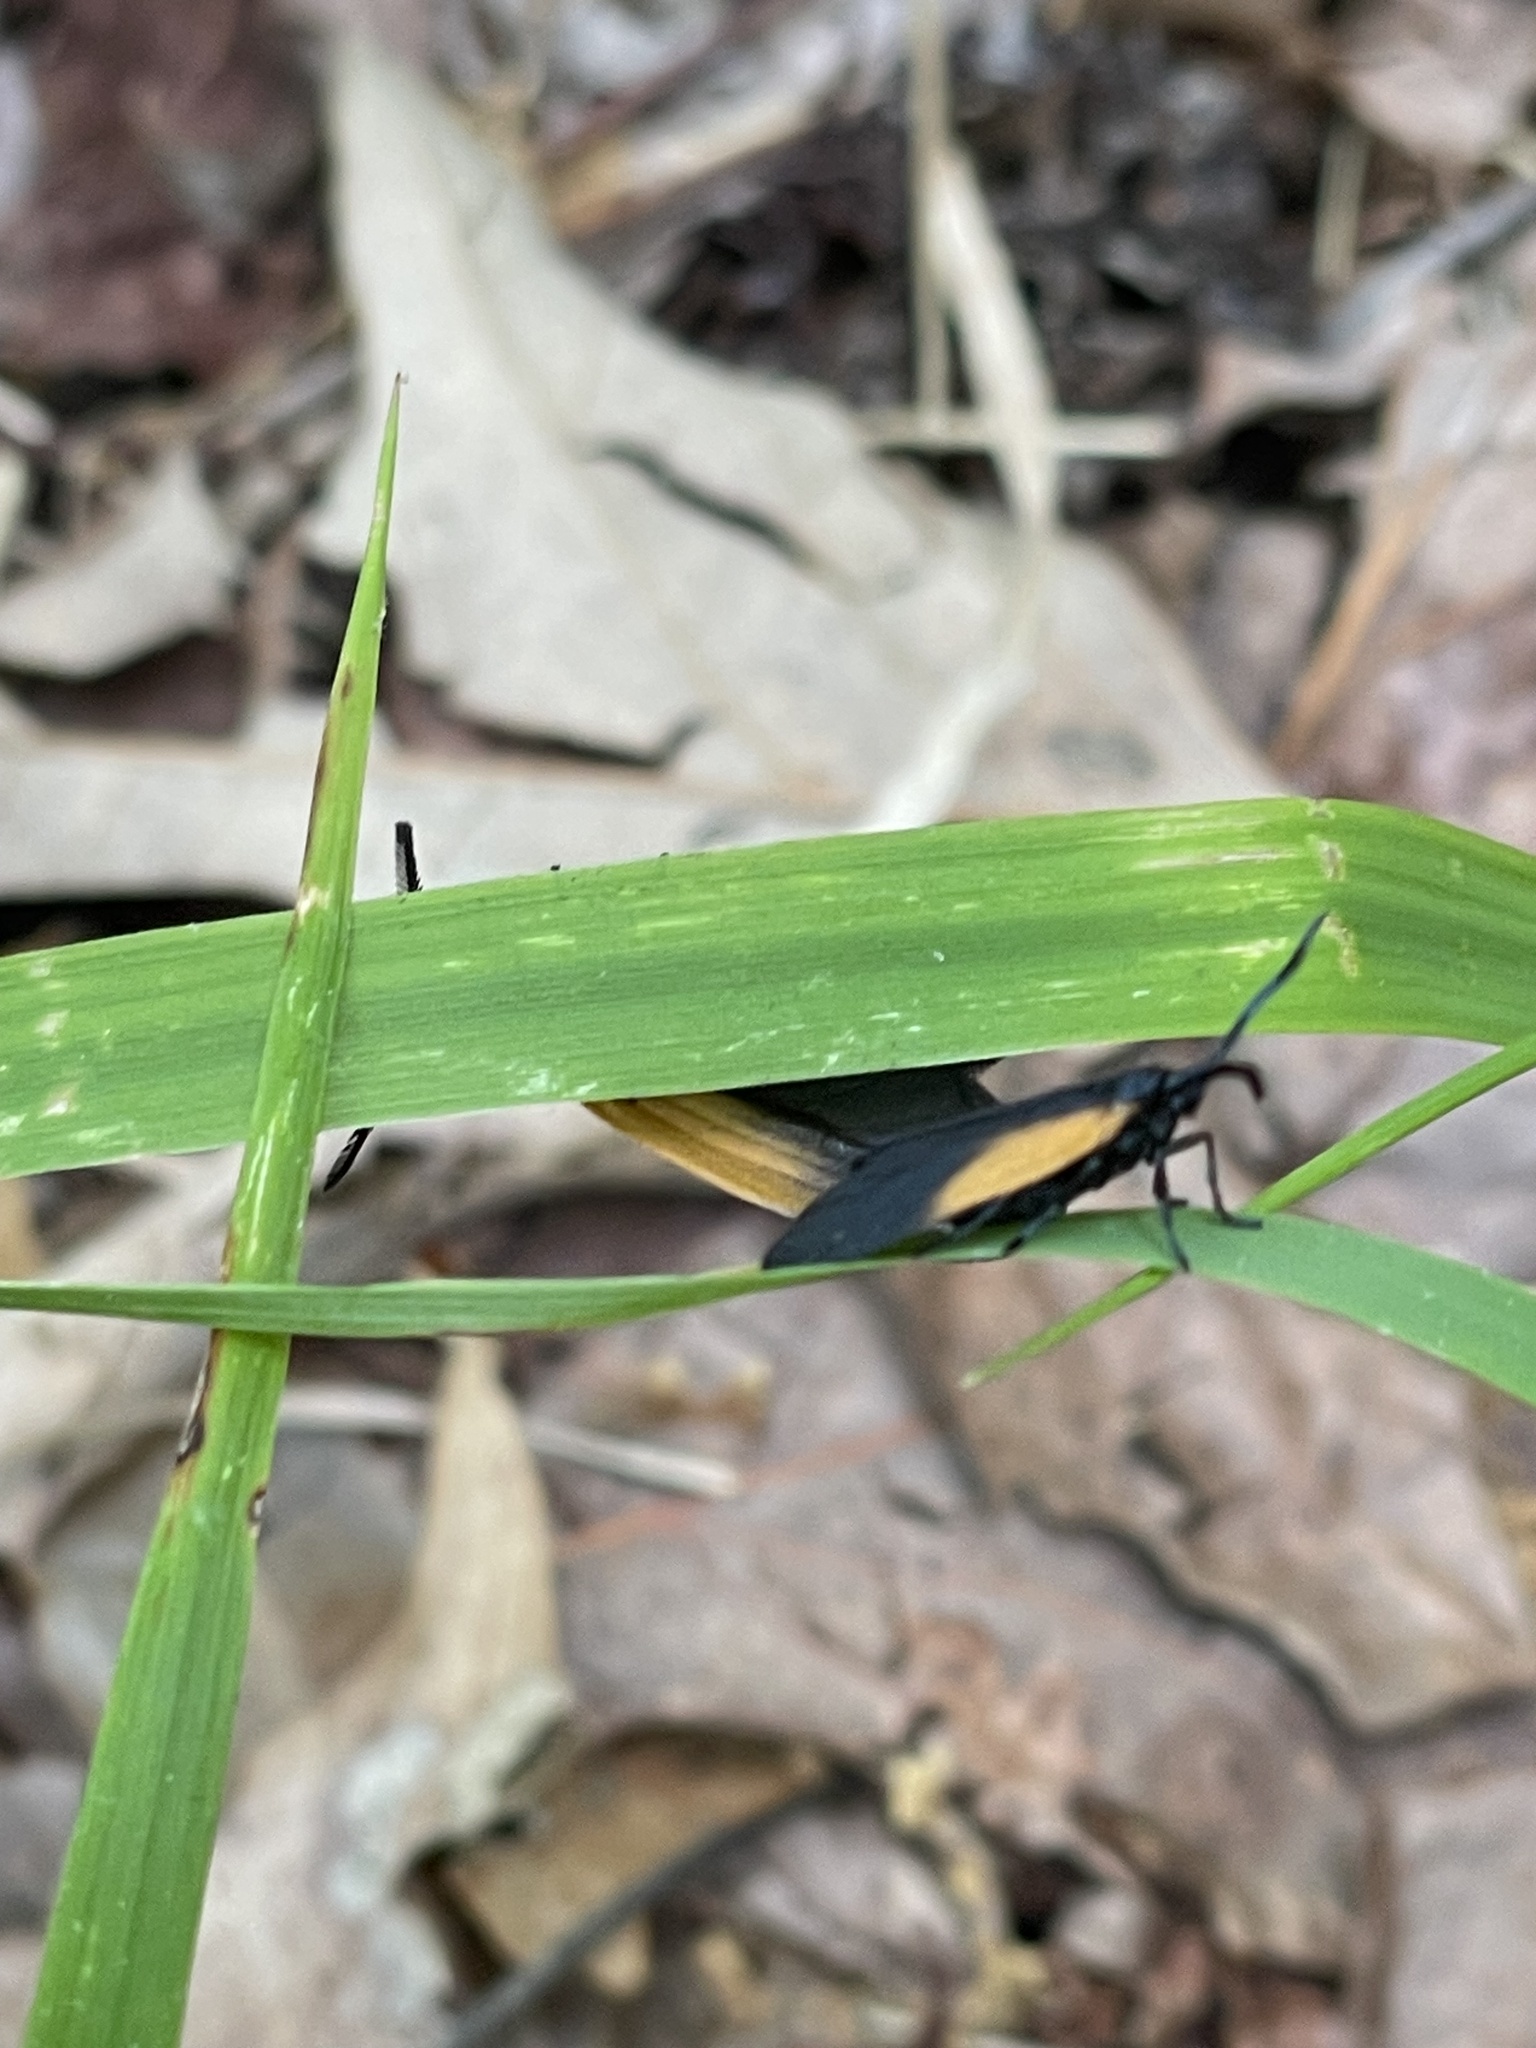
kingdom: Animalia
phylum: Arthropoda
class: Insecta
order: Lepidoptera
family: Zygaenidae
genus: Malthaca
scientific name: Malthaca dimidiata
